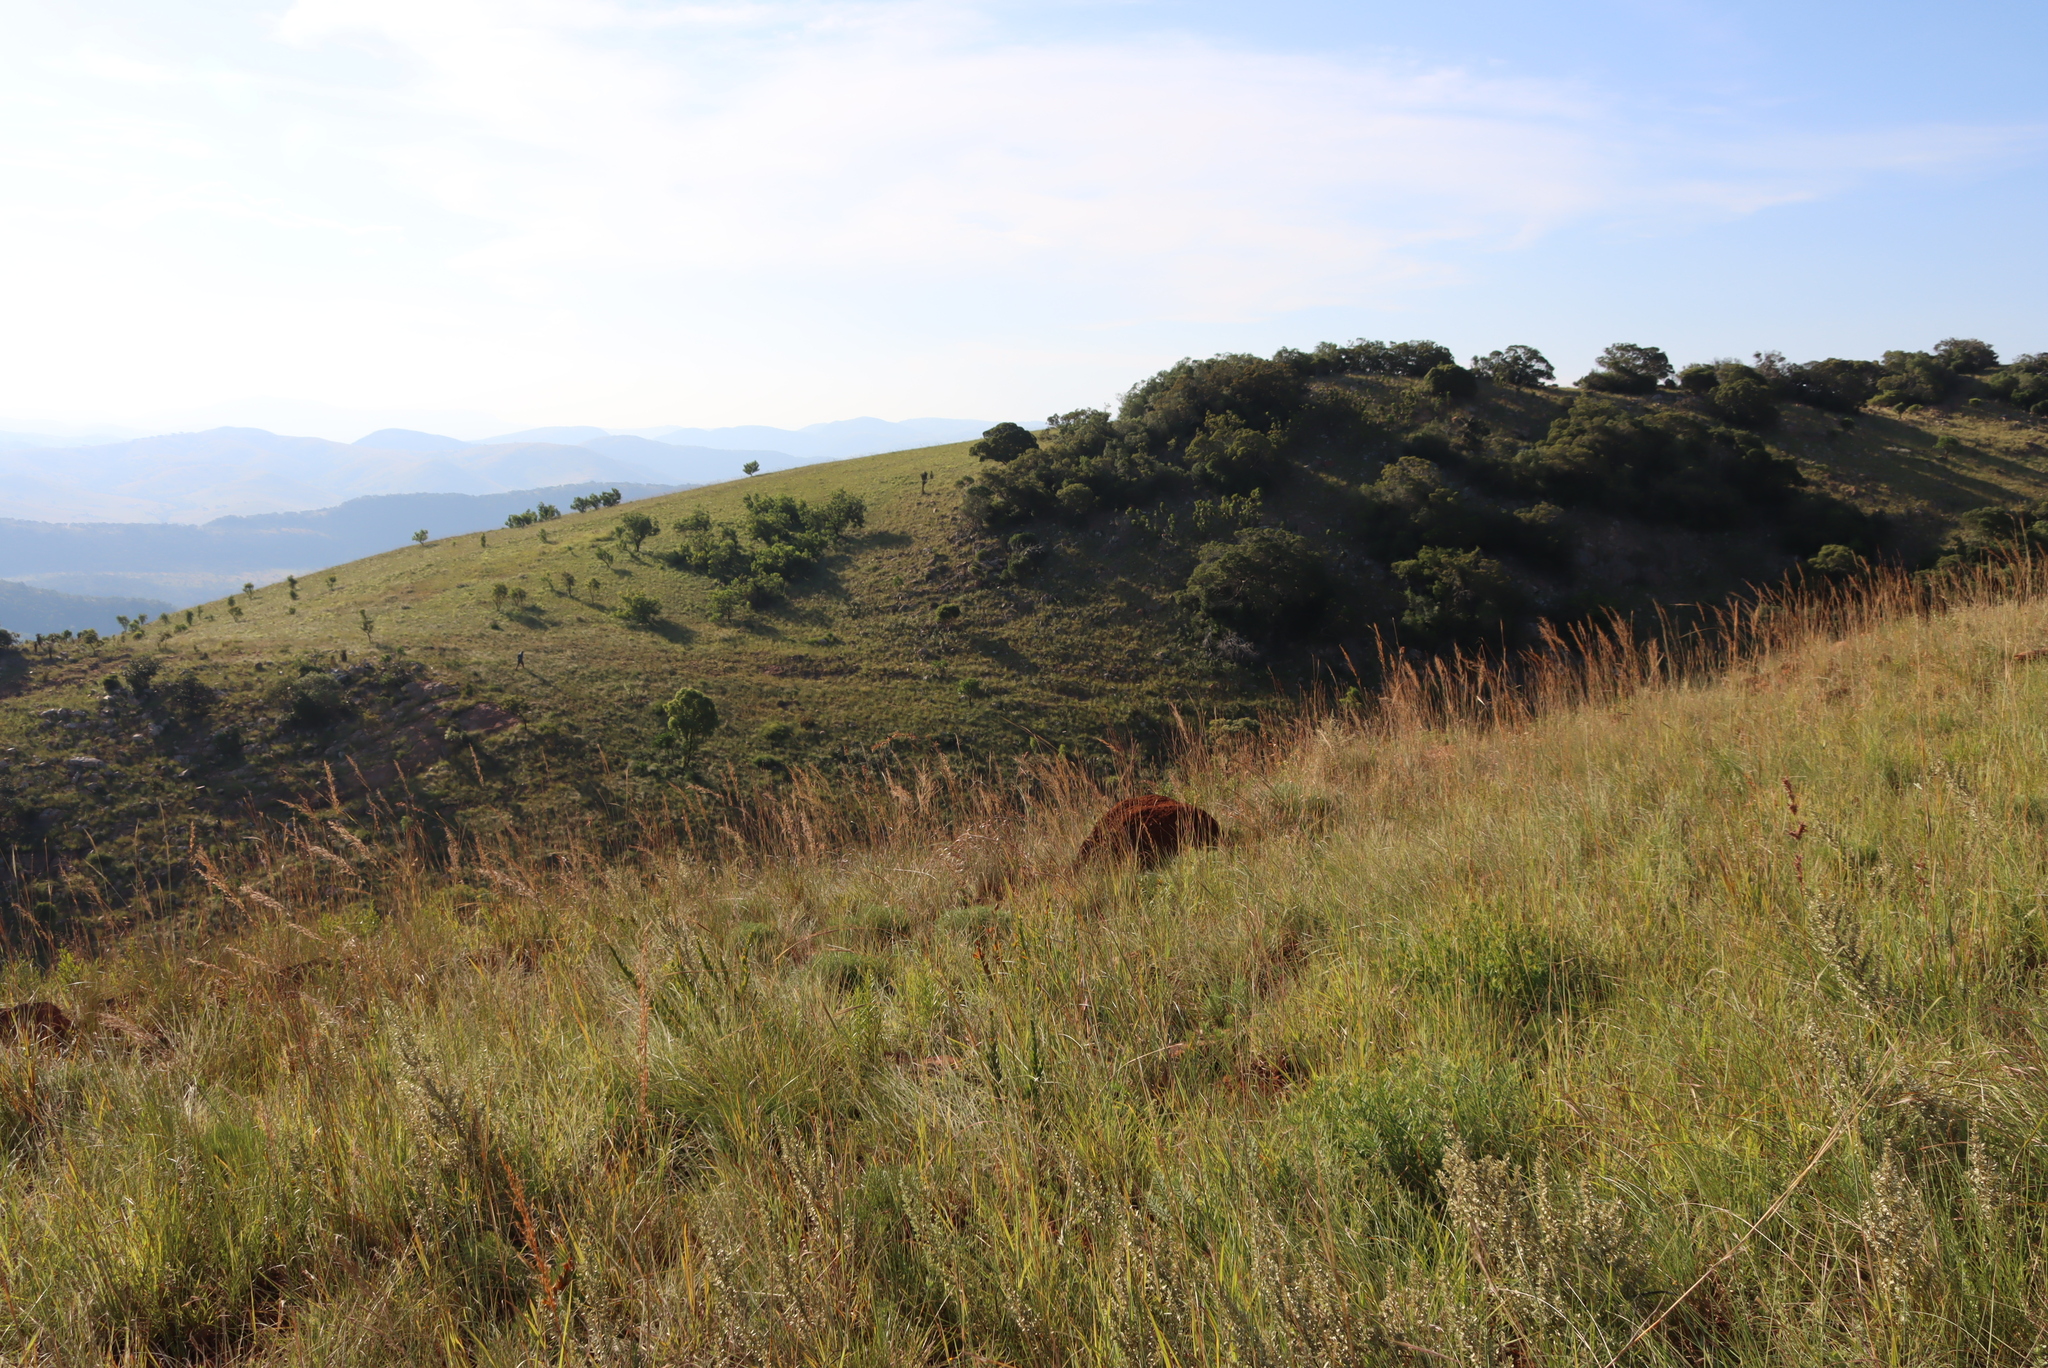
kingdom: Plantae
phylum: Tracheophyta
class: Magnoliopsida
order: Proteales
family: Proteaceae
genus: Protea
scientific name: Protea caffra
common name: Common sugarbush
